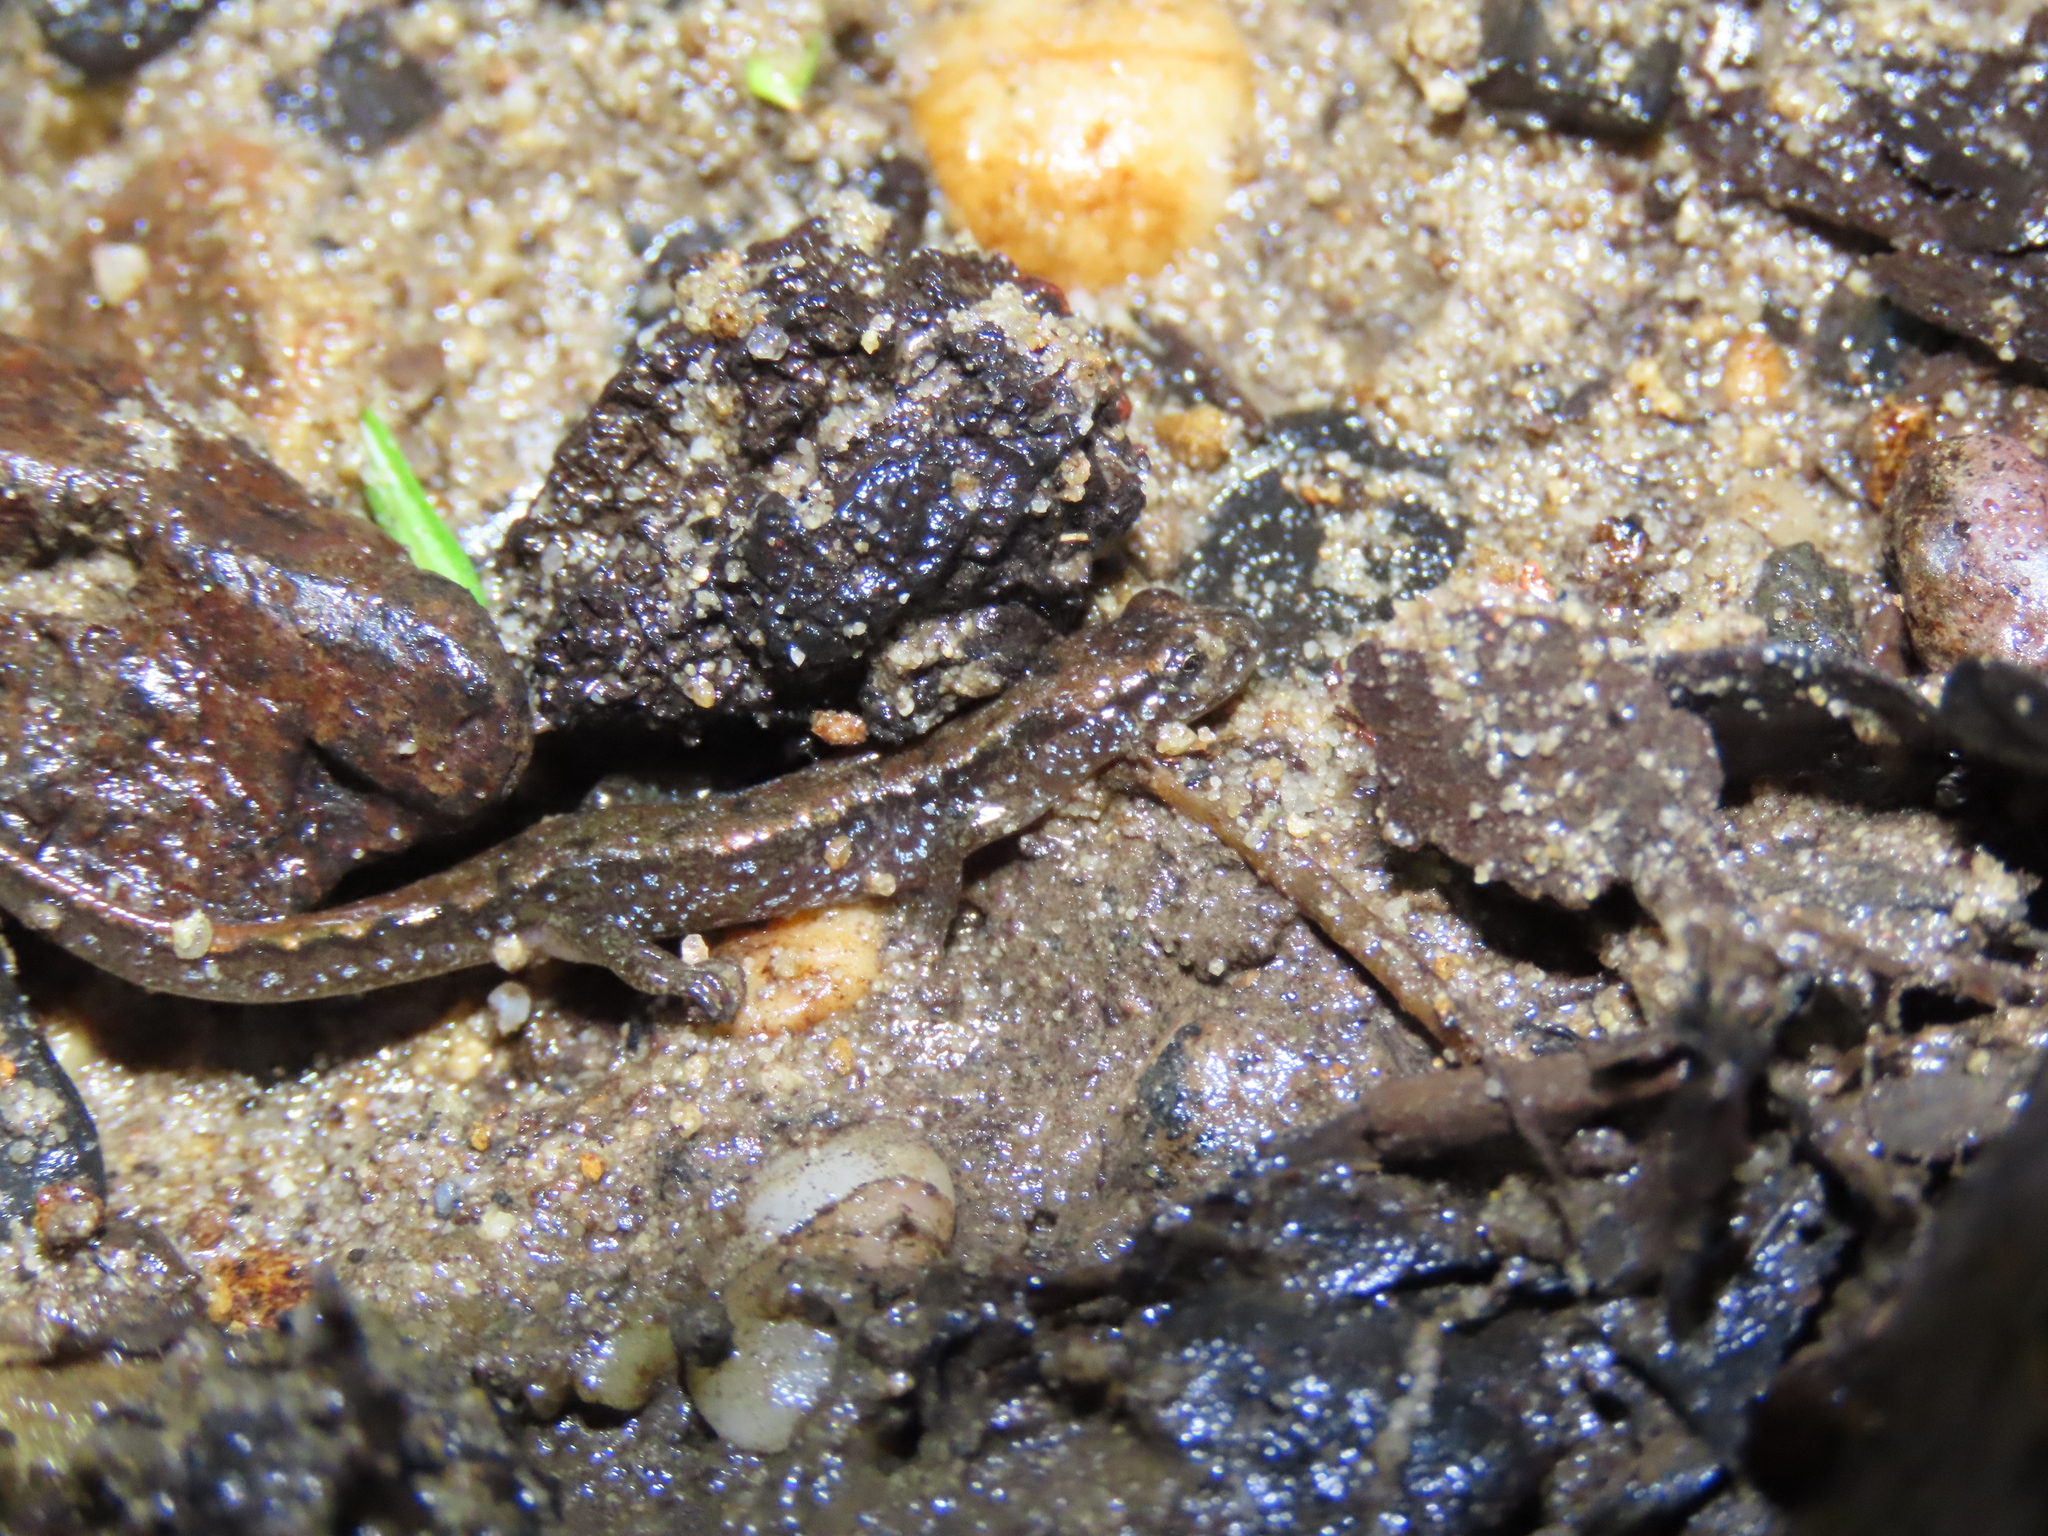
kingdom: Animalia
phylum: Chordata
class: Amphibia
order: Caudata
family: Plethodontidae
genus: Desmognathus
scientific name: Desmognathus fuscus
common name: Northern dusky salamander
